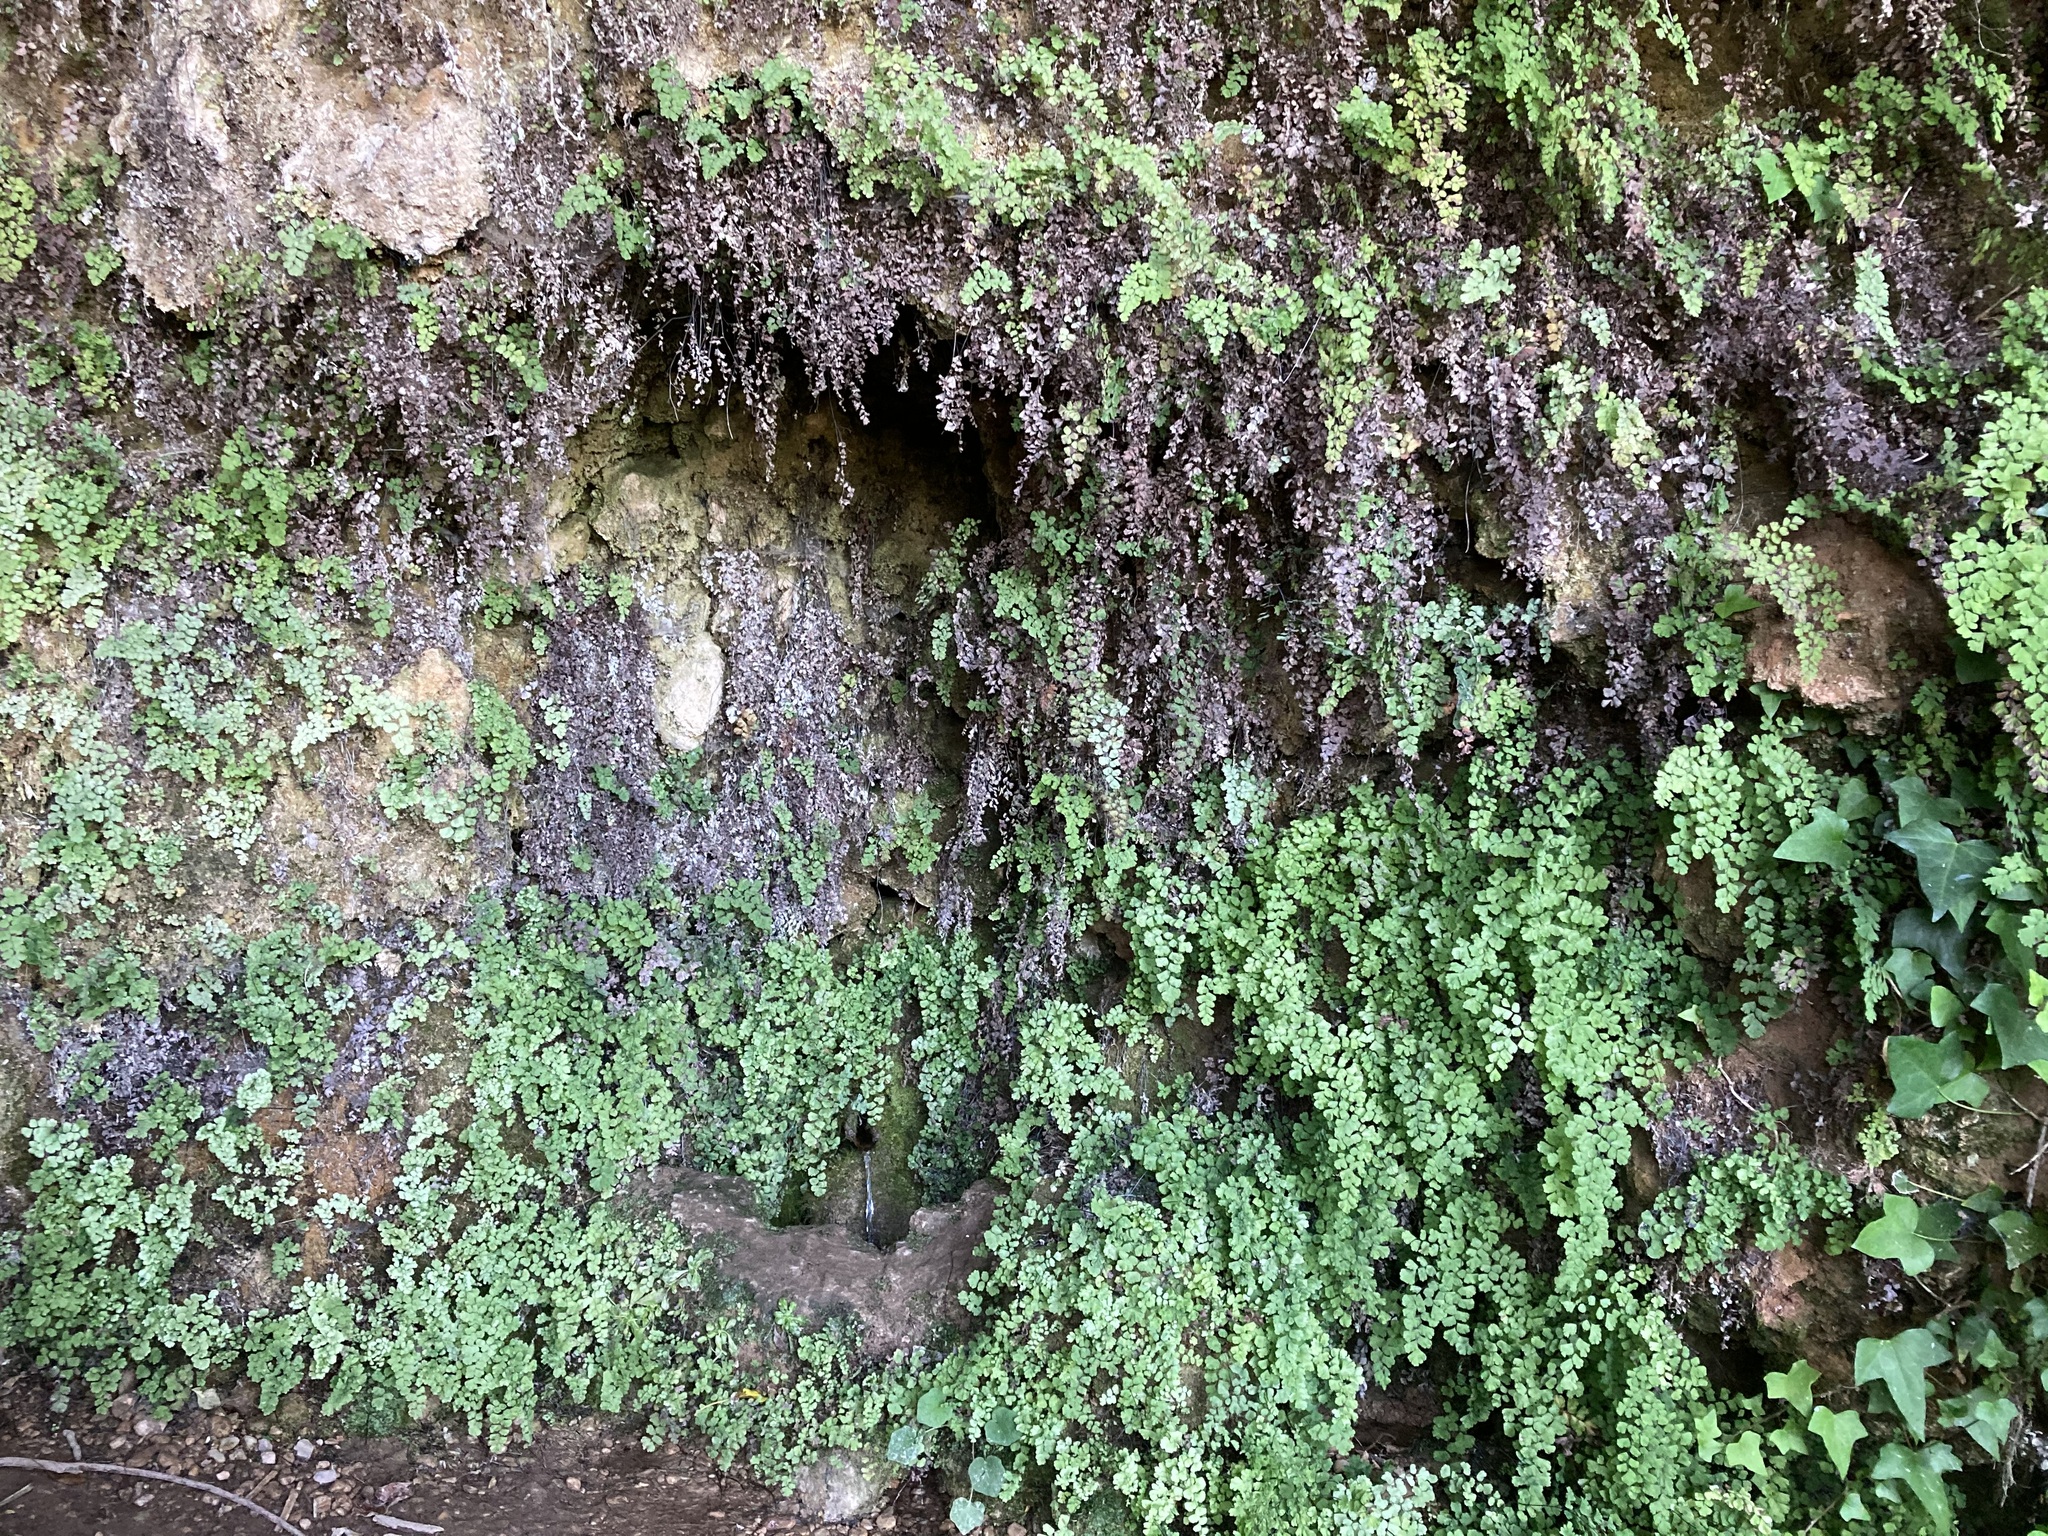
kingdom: Plantae
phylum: Tracheophyta
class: Polypodiopsida
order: Polypodiales
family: Pteridaceae
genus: Adiantum
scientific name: Adiantum capillus-veneris
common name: Maidenhair fern
